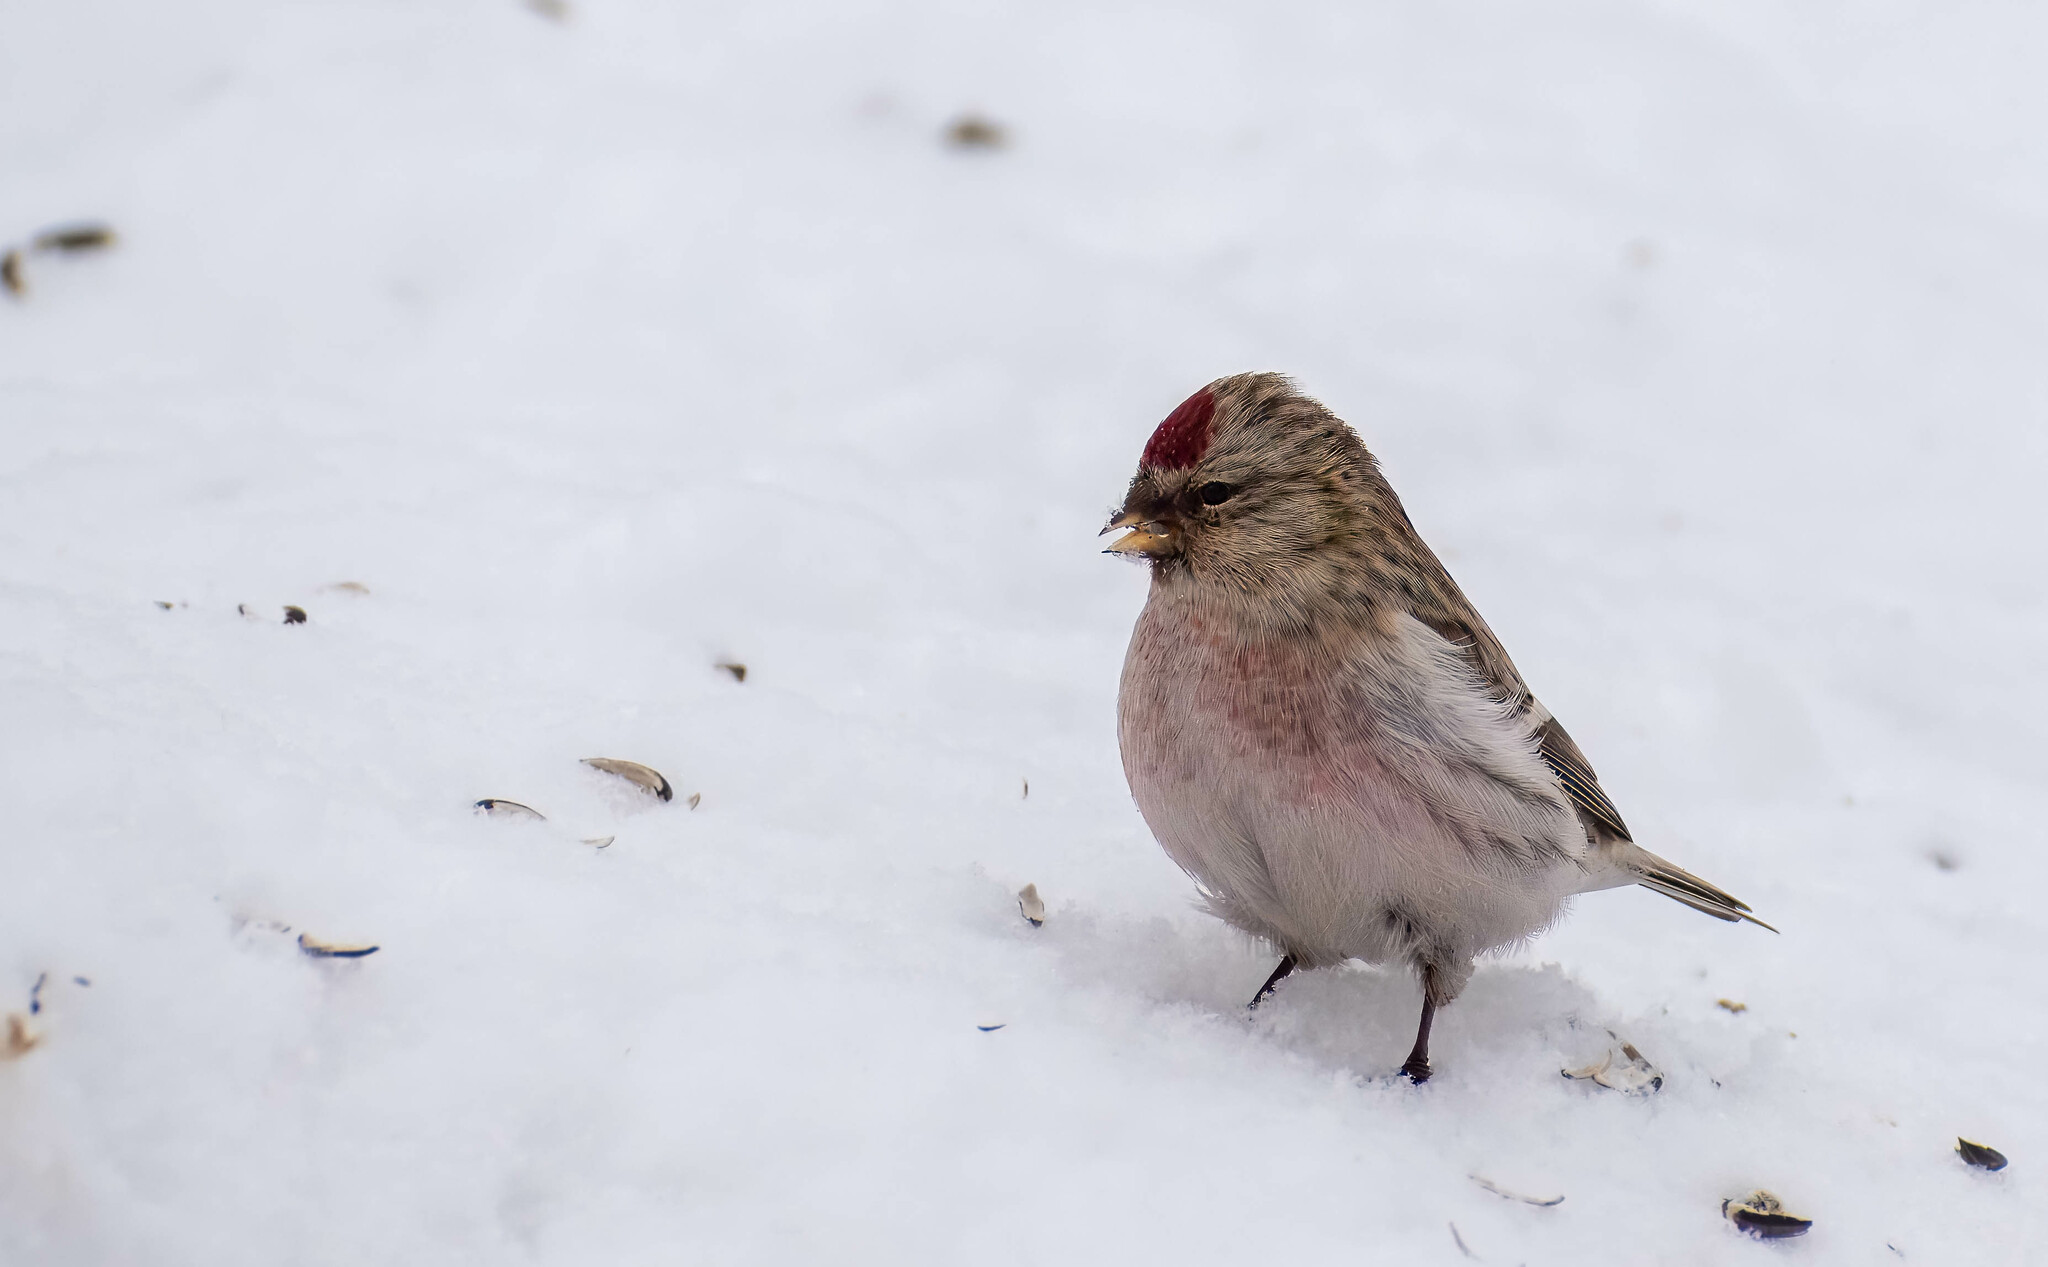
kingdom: Animalia
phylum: Chordata
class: Aves
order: Passeriformes
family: Fringillidae
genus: Acanthis
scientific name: Acanthis hornemanni
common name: Arctic redpoll
